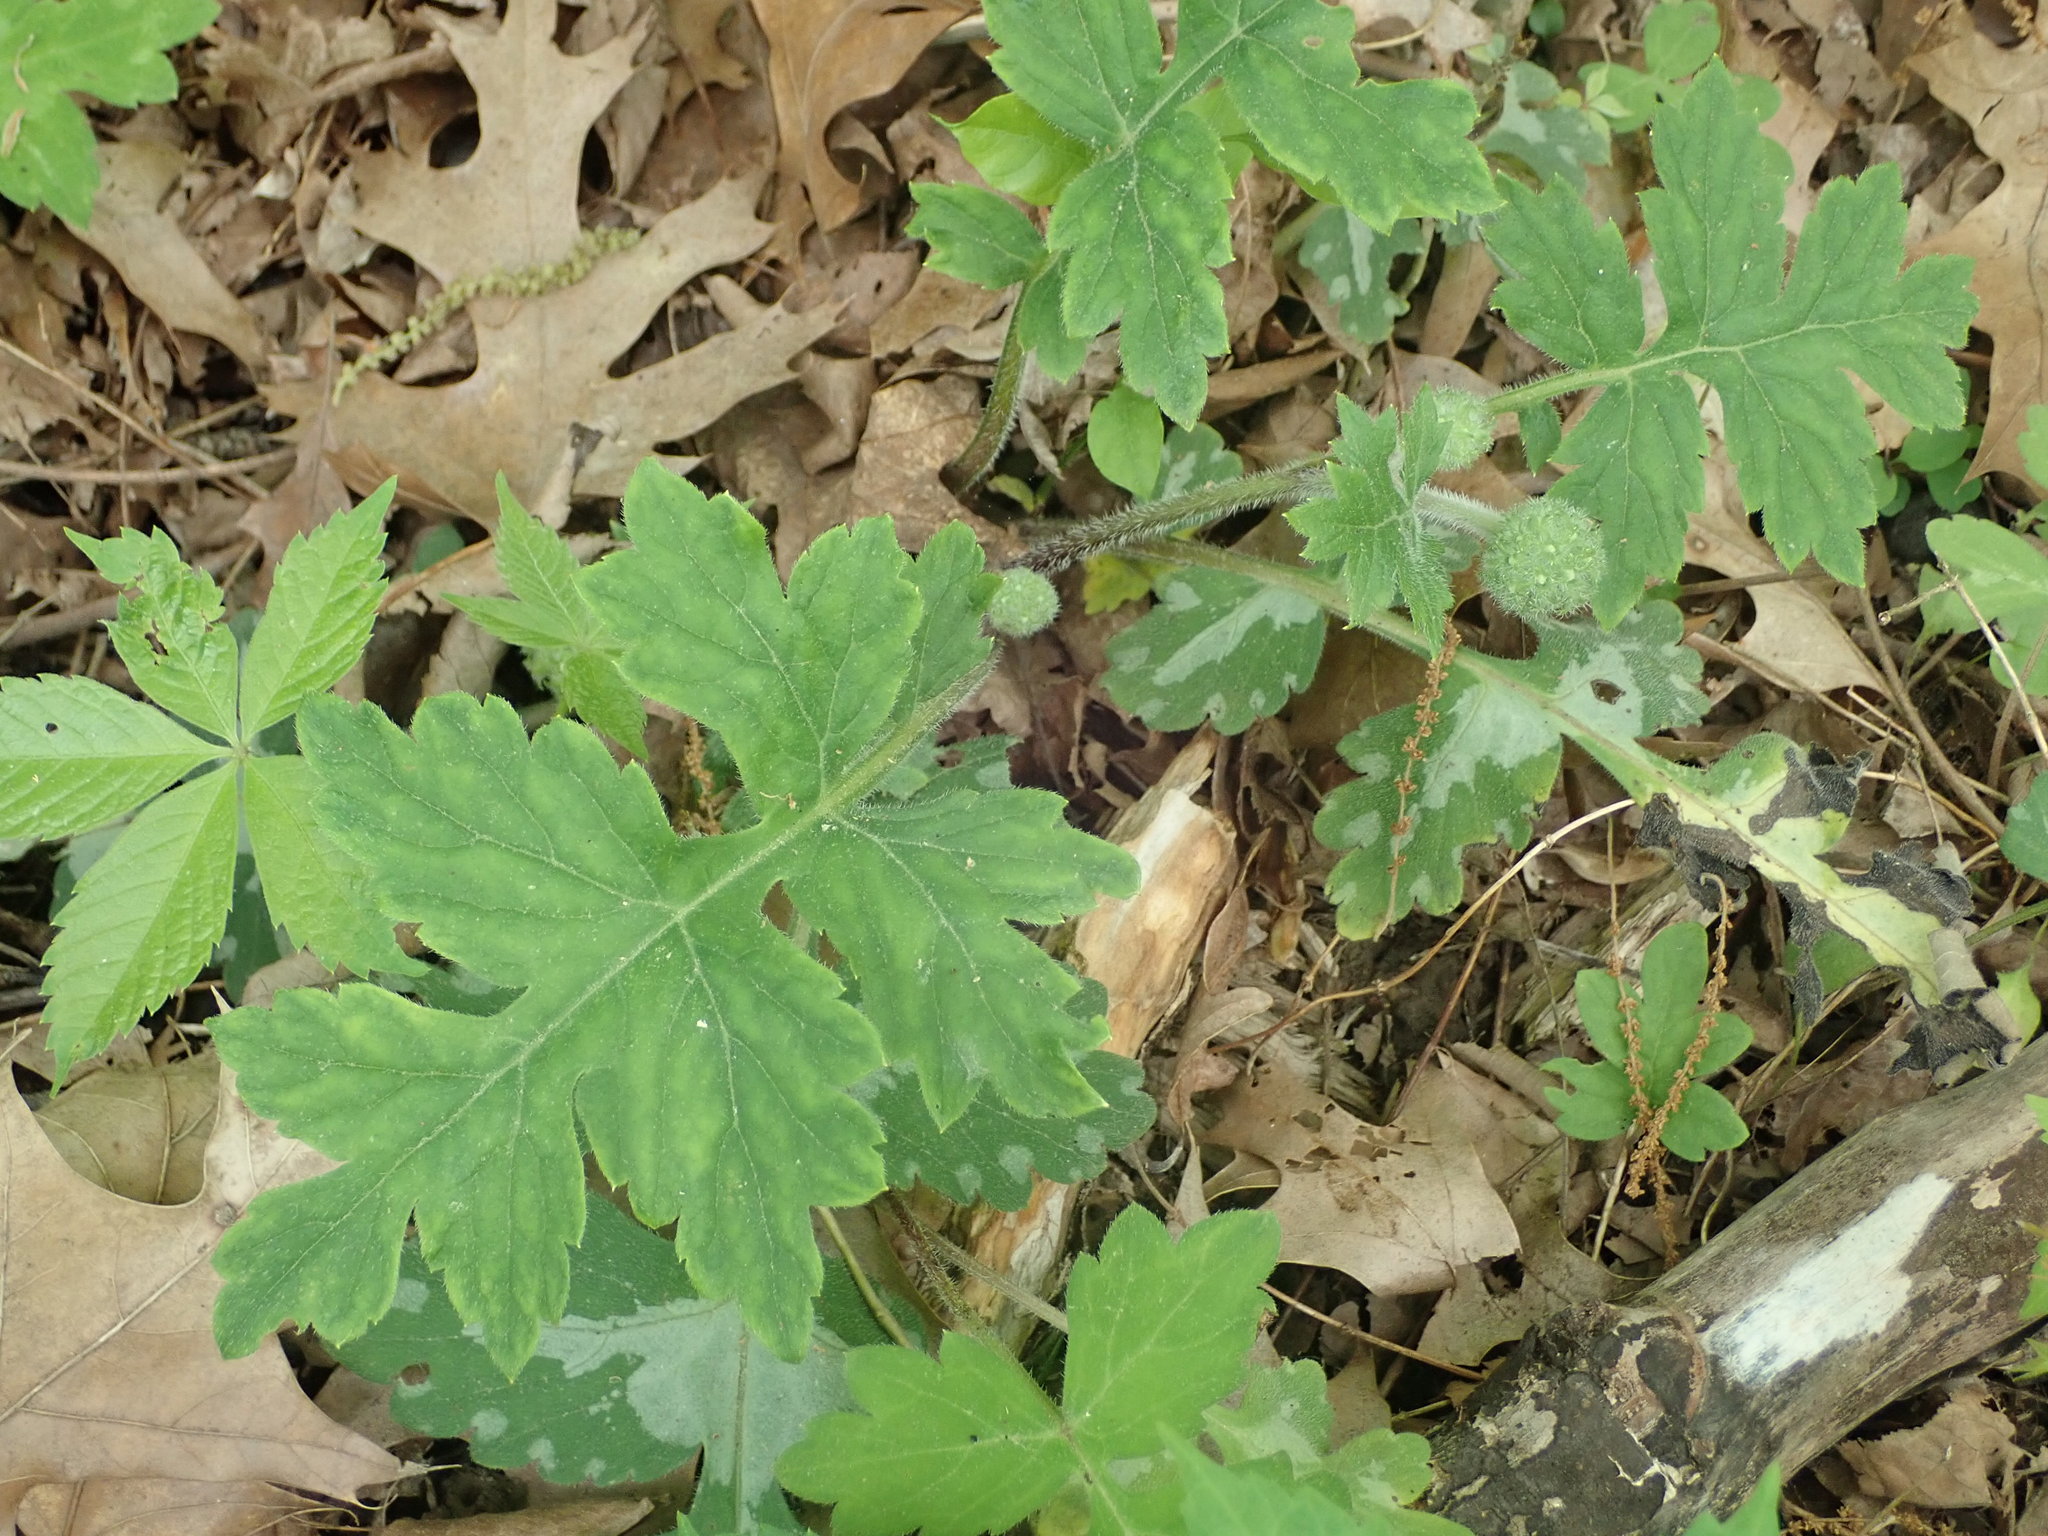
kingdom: Plantae
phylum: Tracheophyta
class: Magnoliopsida
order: Boraginales
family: Hydrophyllaceae
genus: Hydrophyllum
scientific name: Hydrophyllum macrophyllum
